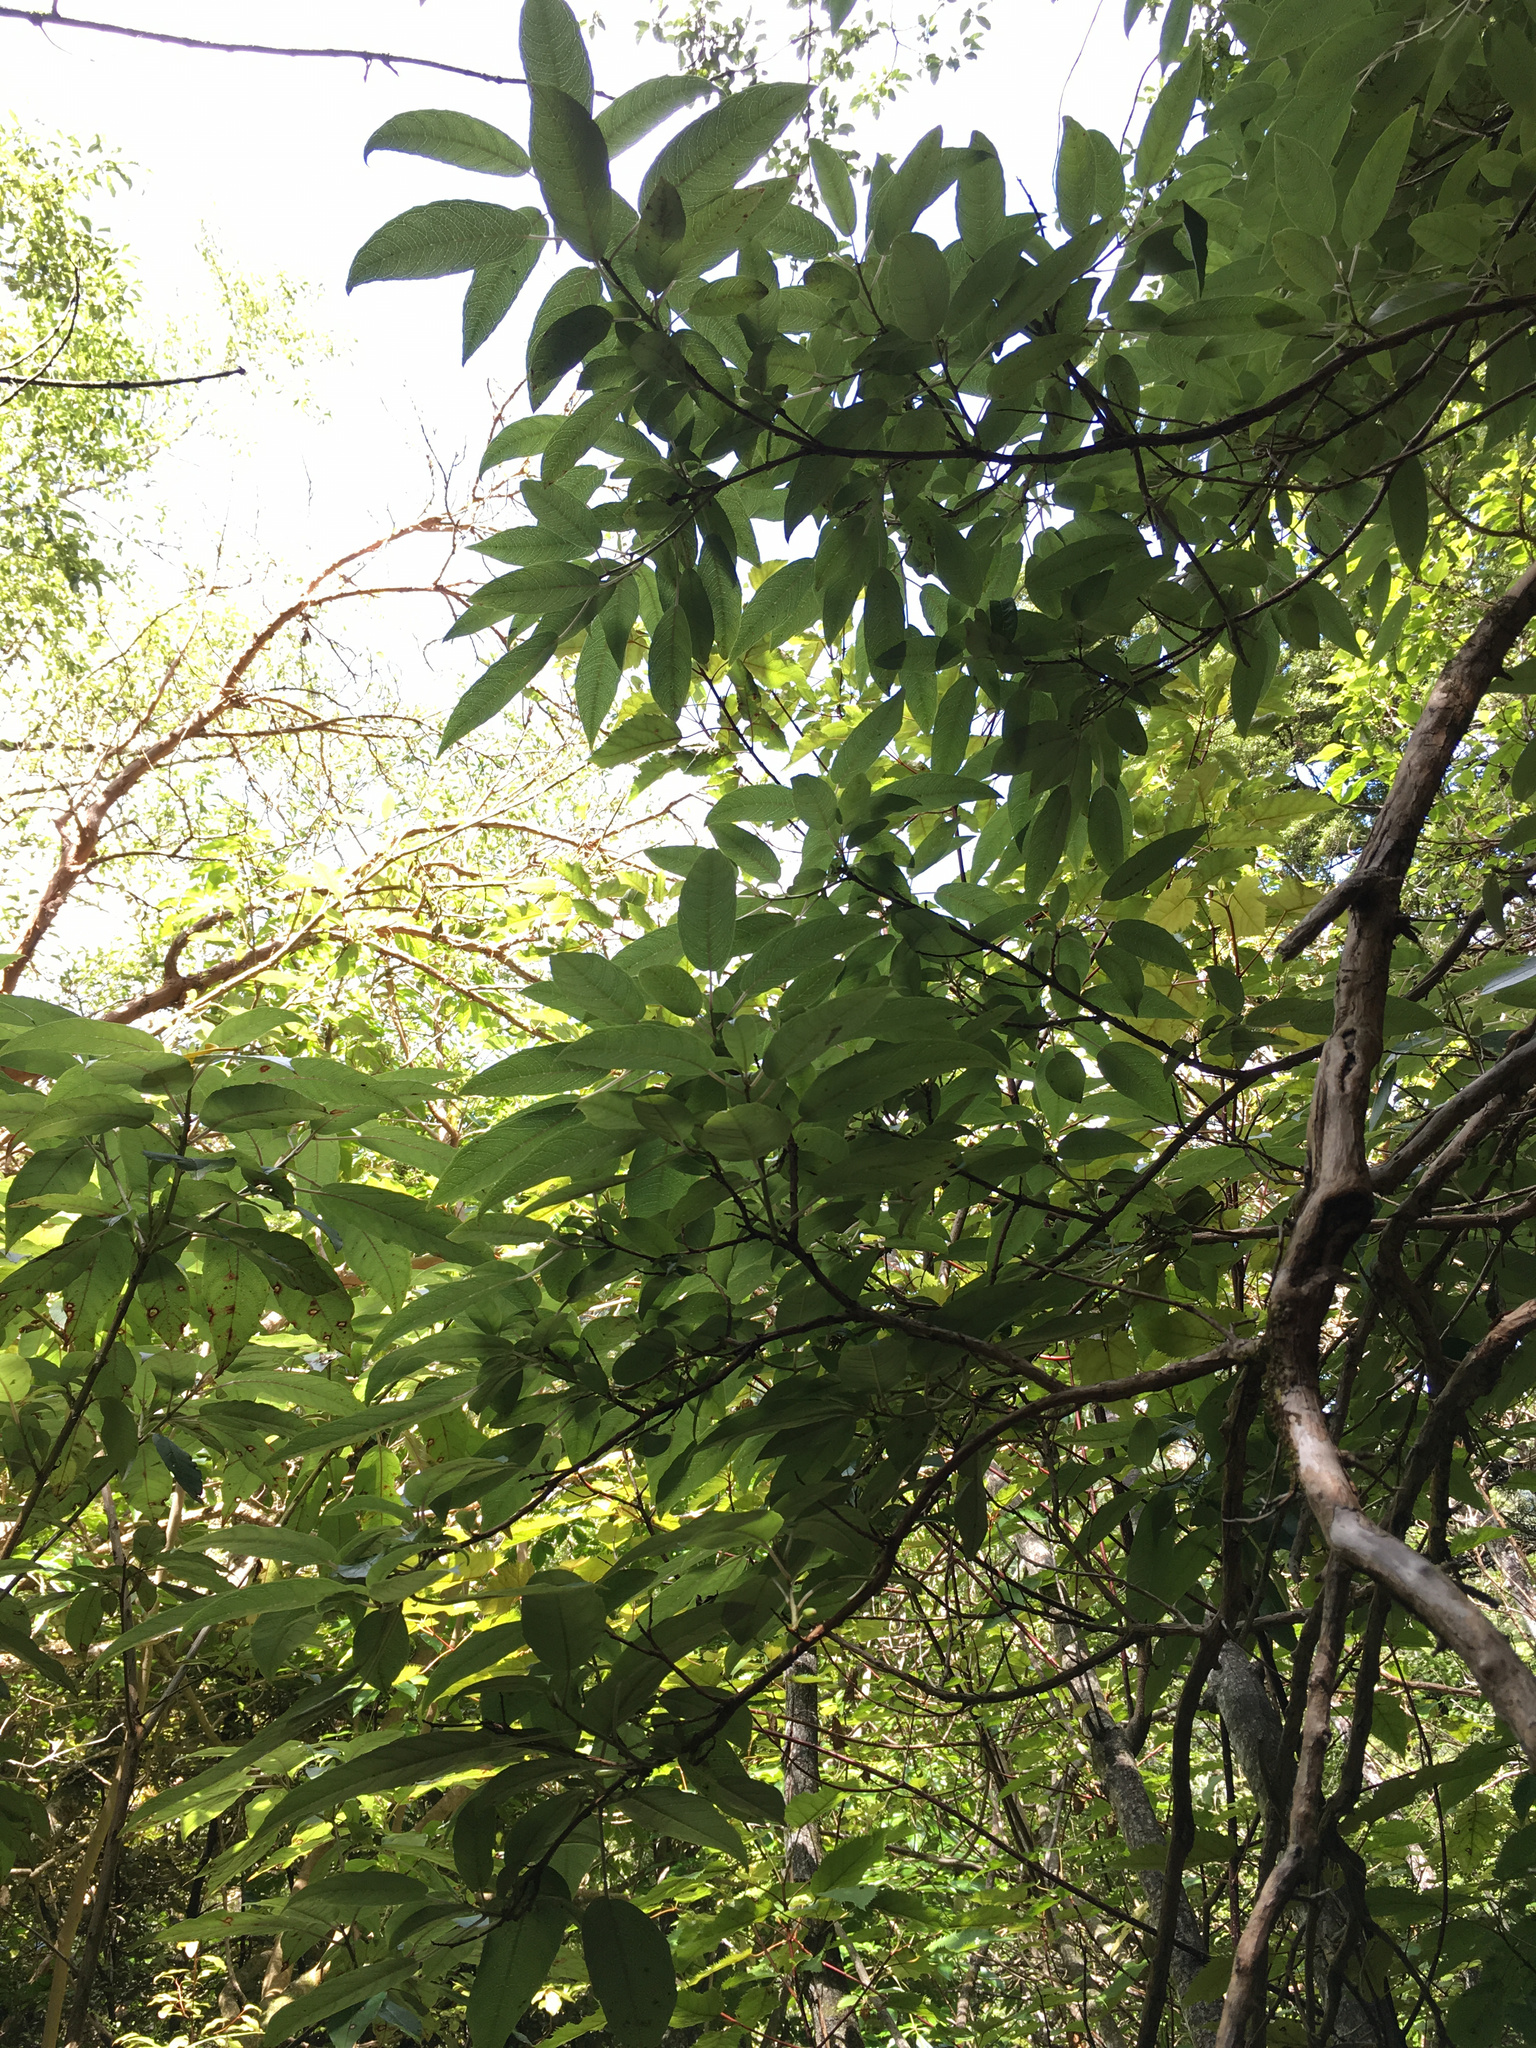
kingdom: Plantae
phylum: Tracheophyta
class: Magnoliopsida
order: Myrtales
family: Onagraceae
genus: Fuchsia
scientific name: Fuchsia excorticata
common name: Tree fuchsia
